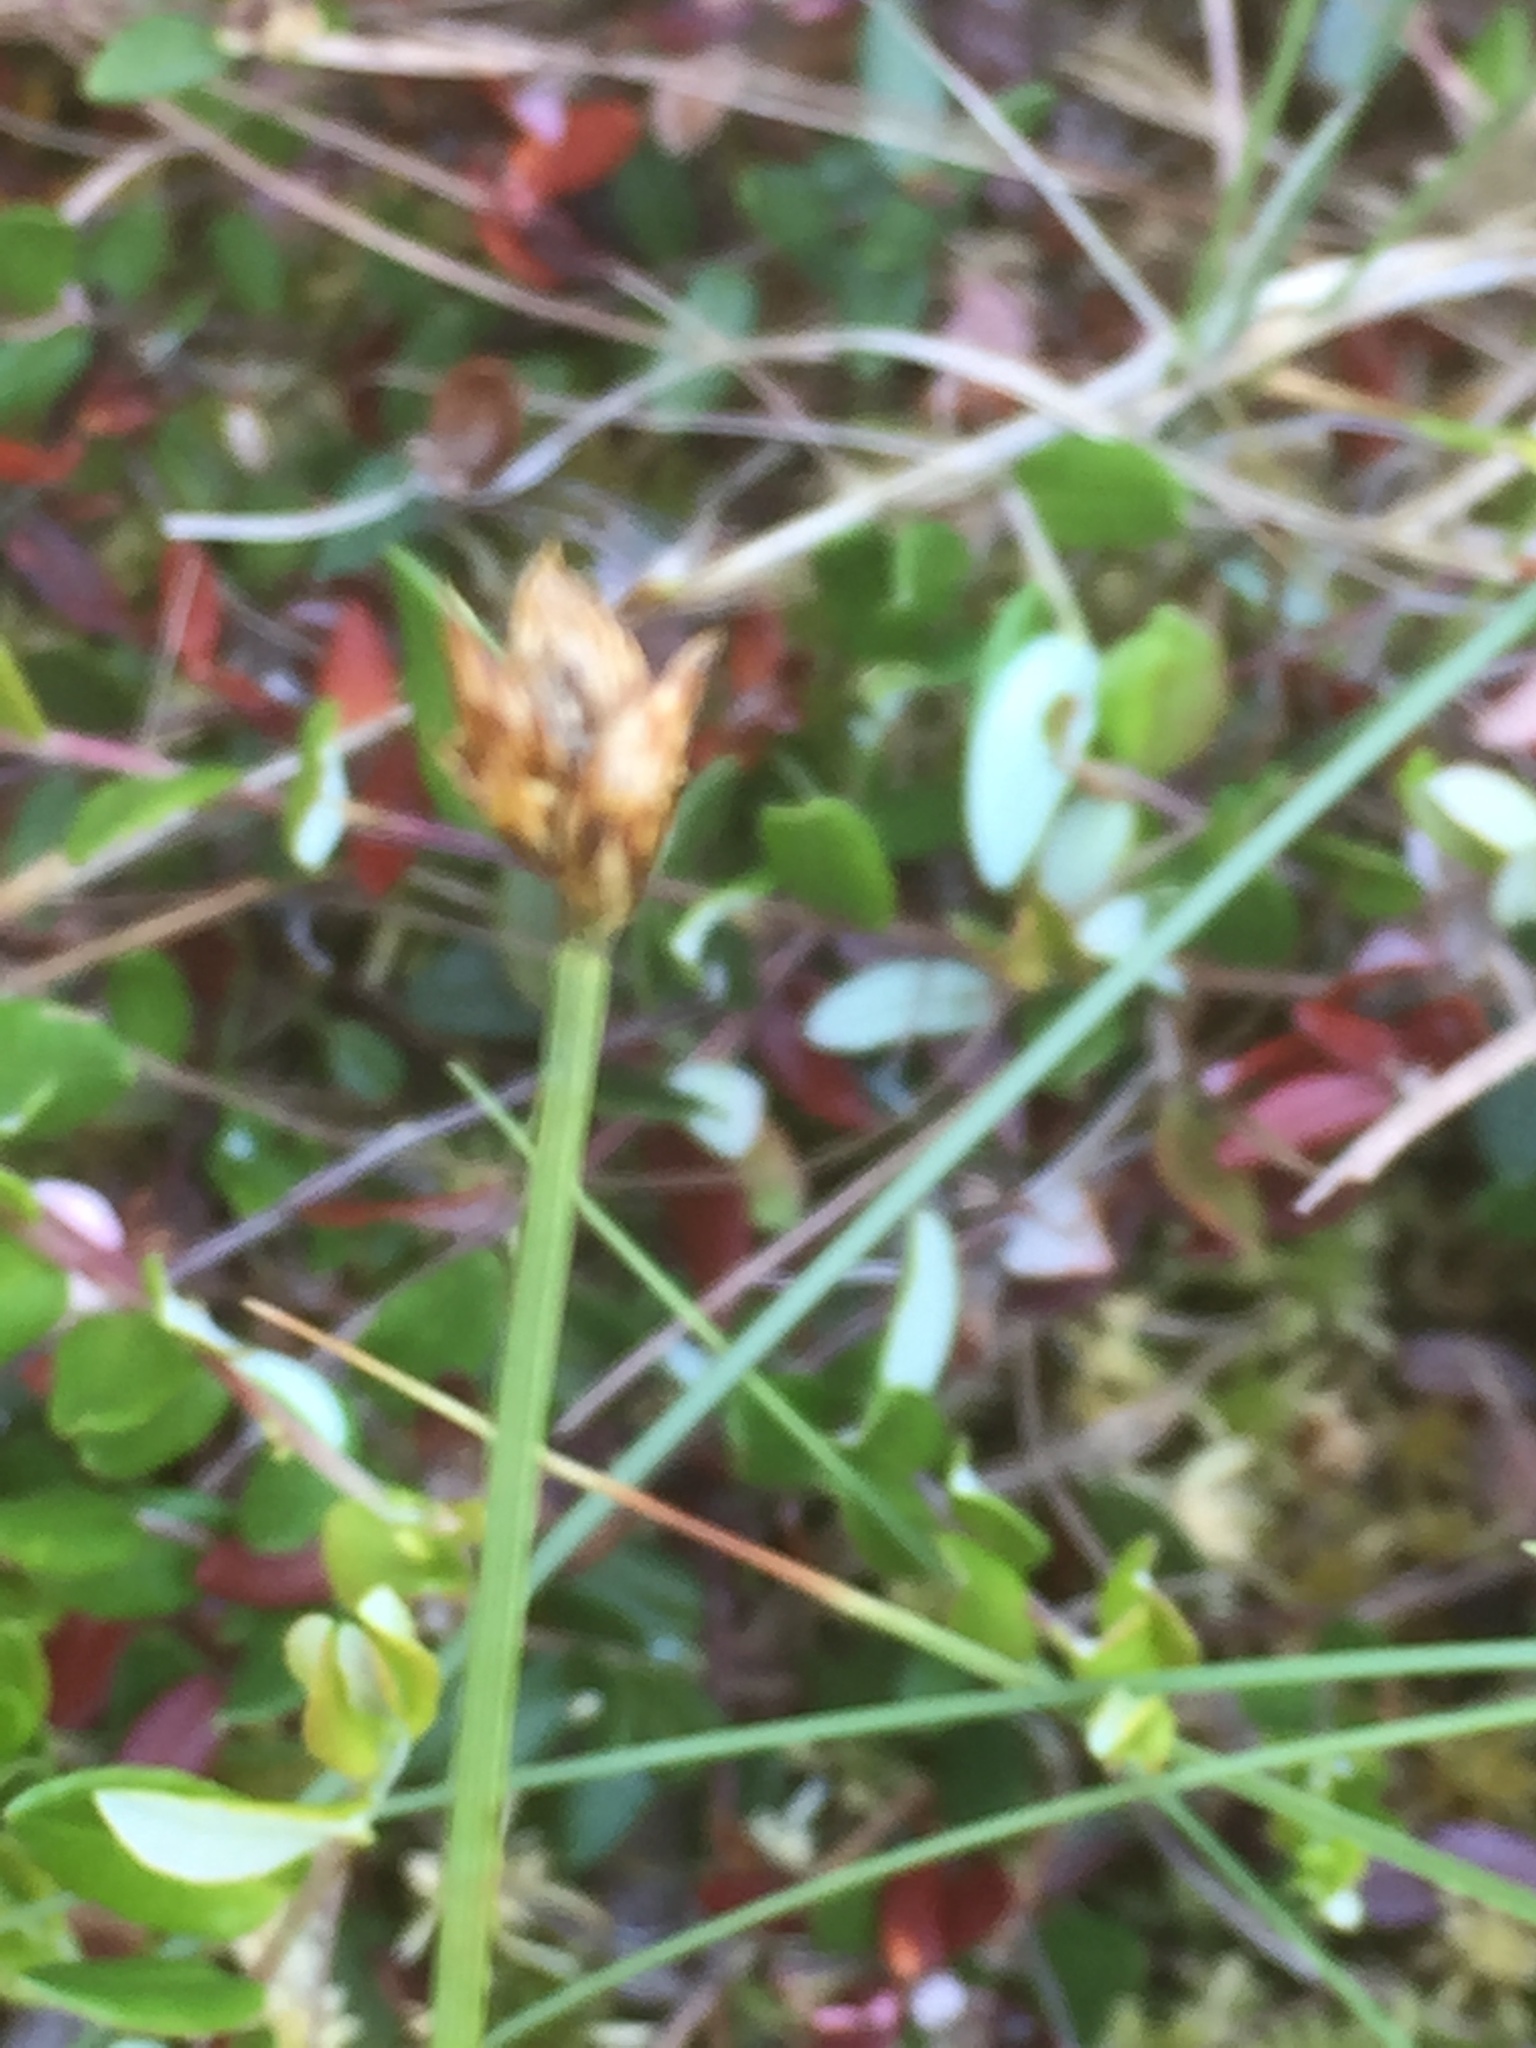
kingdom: Plantae
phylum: Tracheophyta
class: Liliopsida
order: Poales
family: Cyperaceae
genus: Carex
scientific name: Carex chordorrhiza
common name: String sedge
